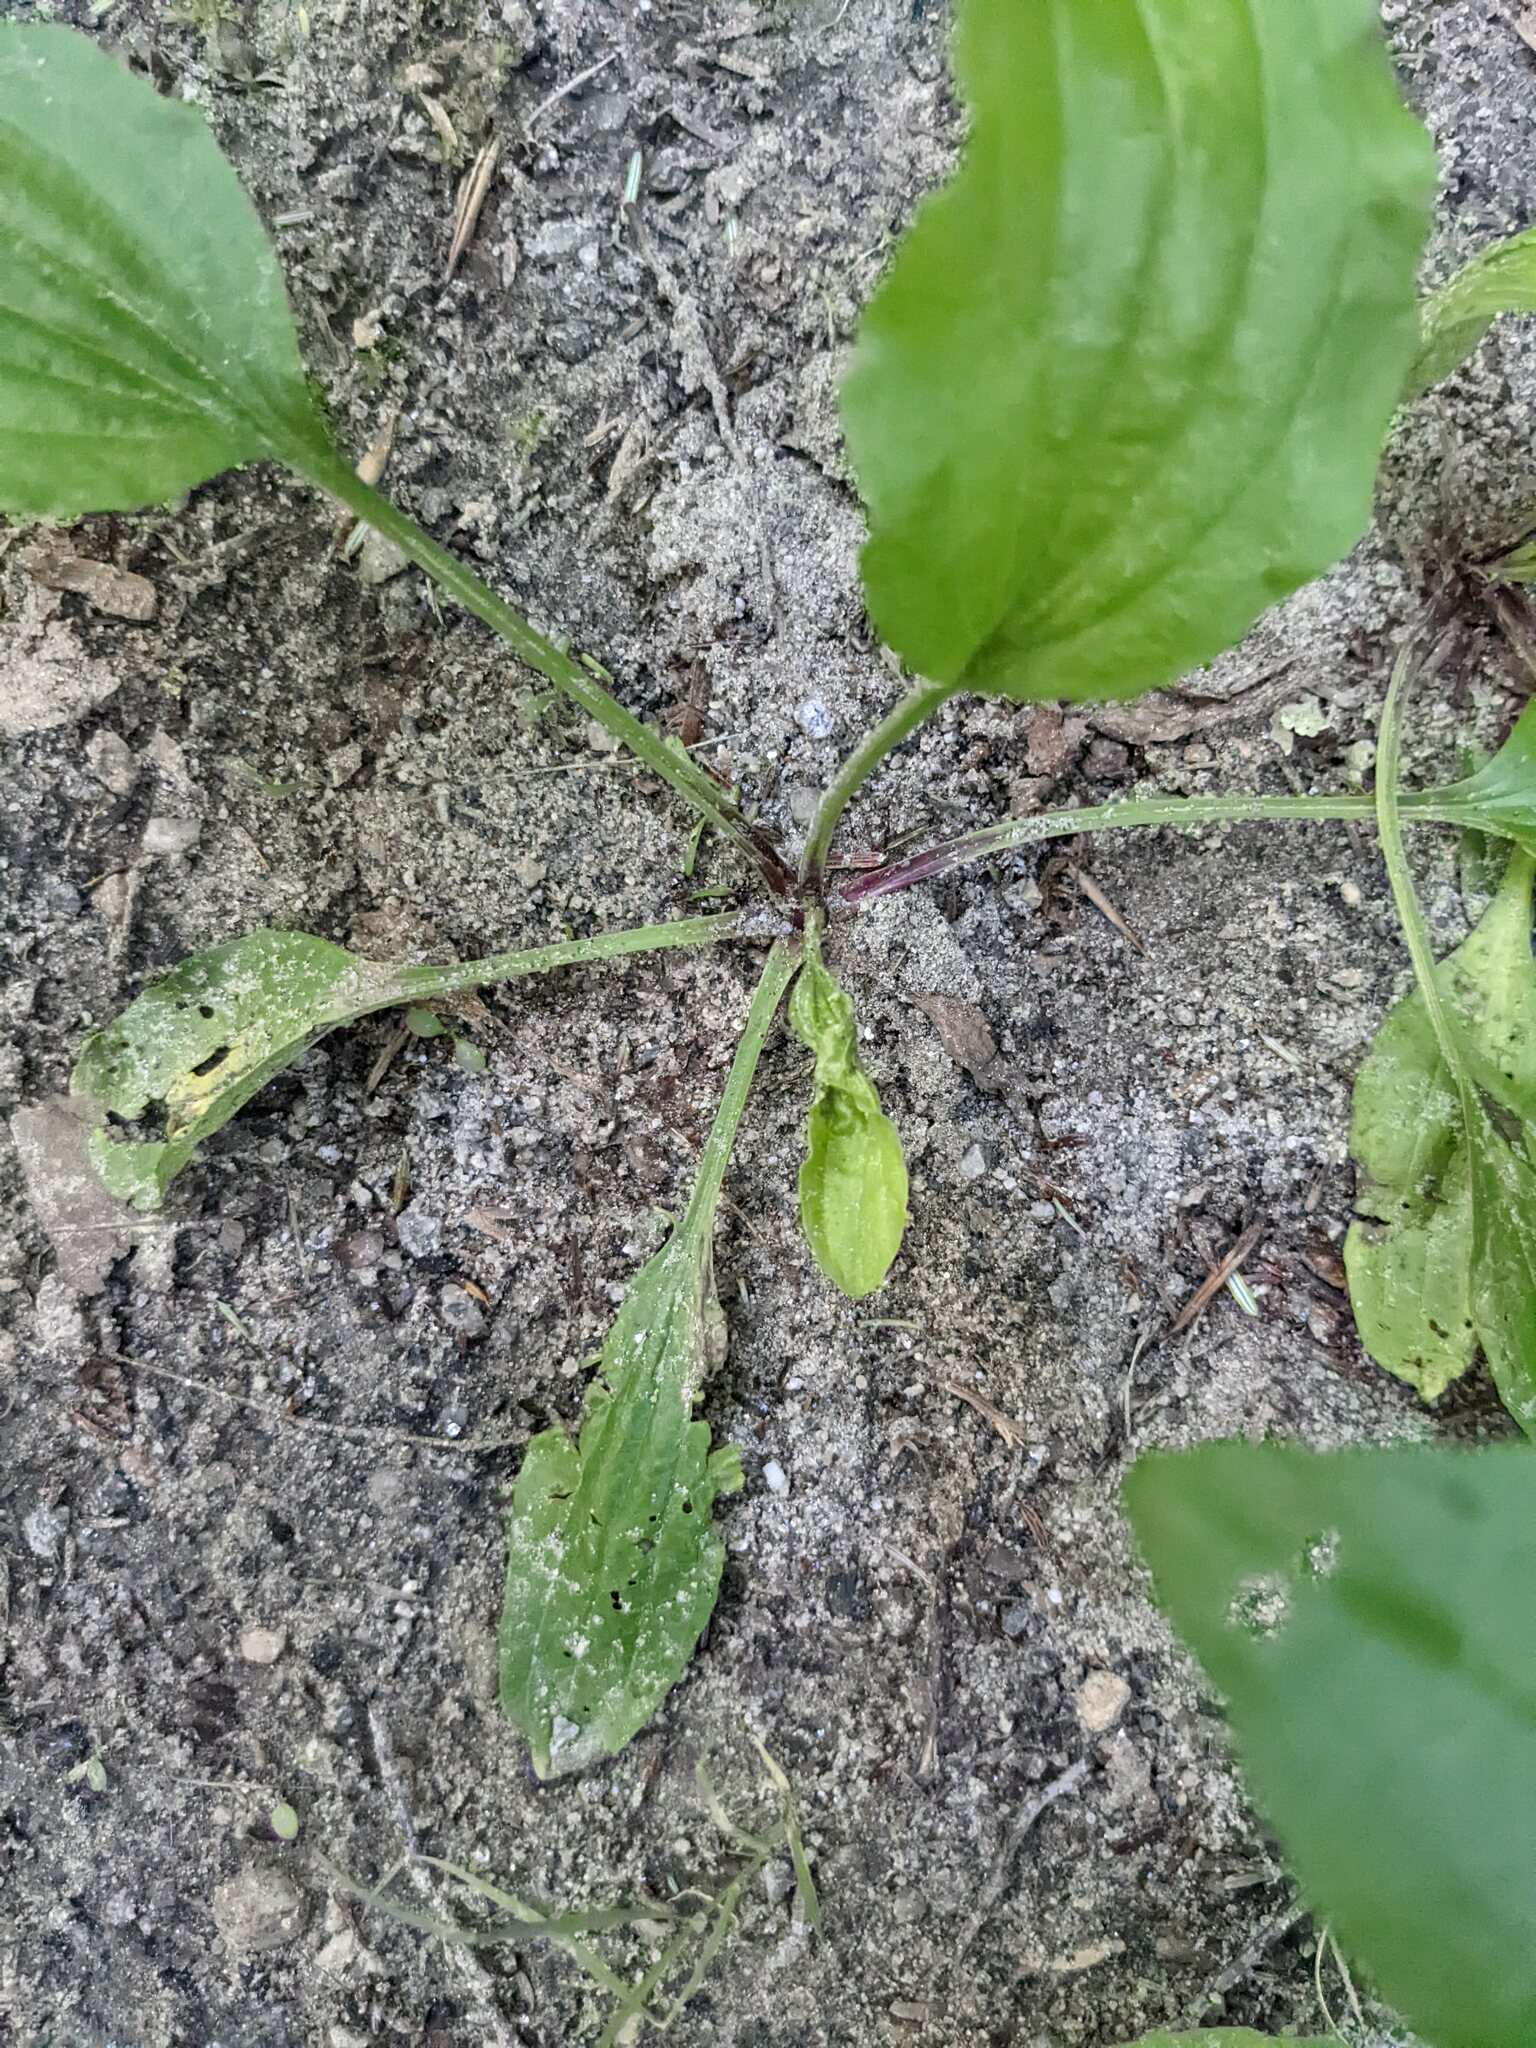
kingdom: Plantae
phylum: Tracheophyta
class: Magnoliopsida
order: Lamiales
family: Plantaginaceae
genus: Plantago
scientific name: Plantago rugelii
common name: American plantain
